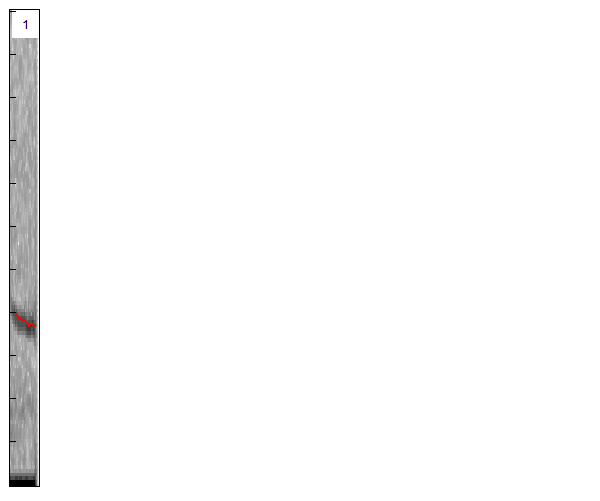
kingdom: Animalia
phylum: Chordata
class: Mammalia
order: Chiroptera
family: Vespertilionidae
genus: Pipistrellus
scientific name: Pipistrellus pipistrellus
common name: Common pipistrelle
